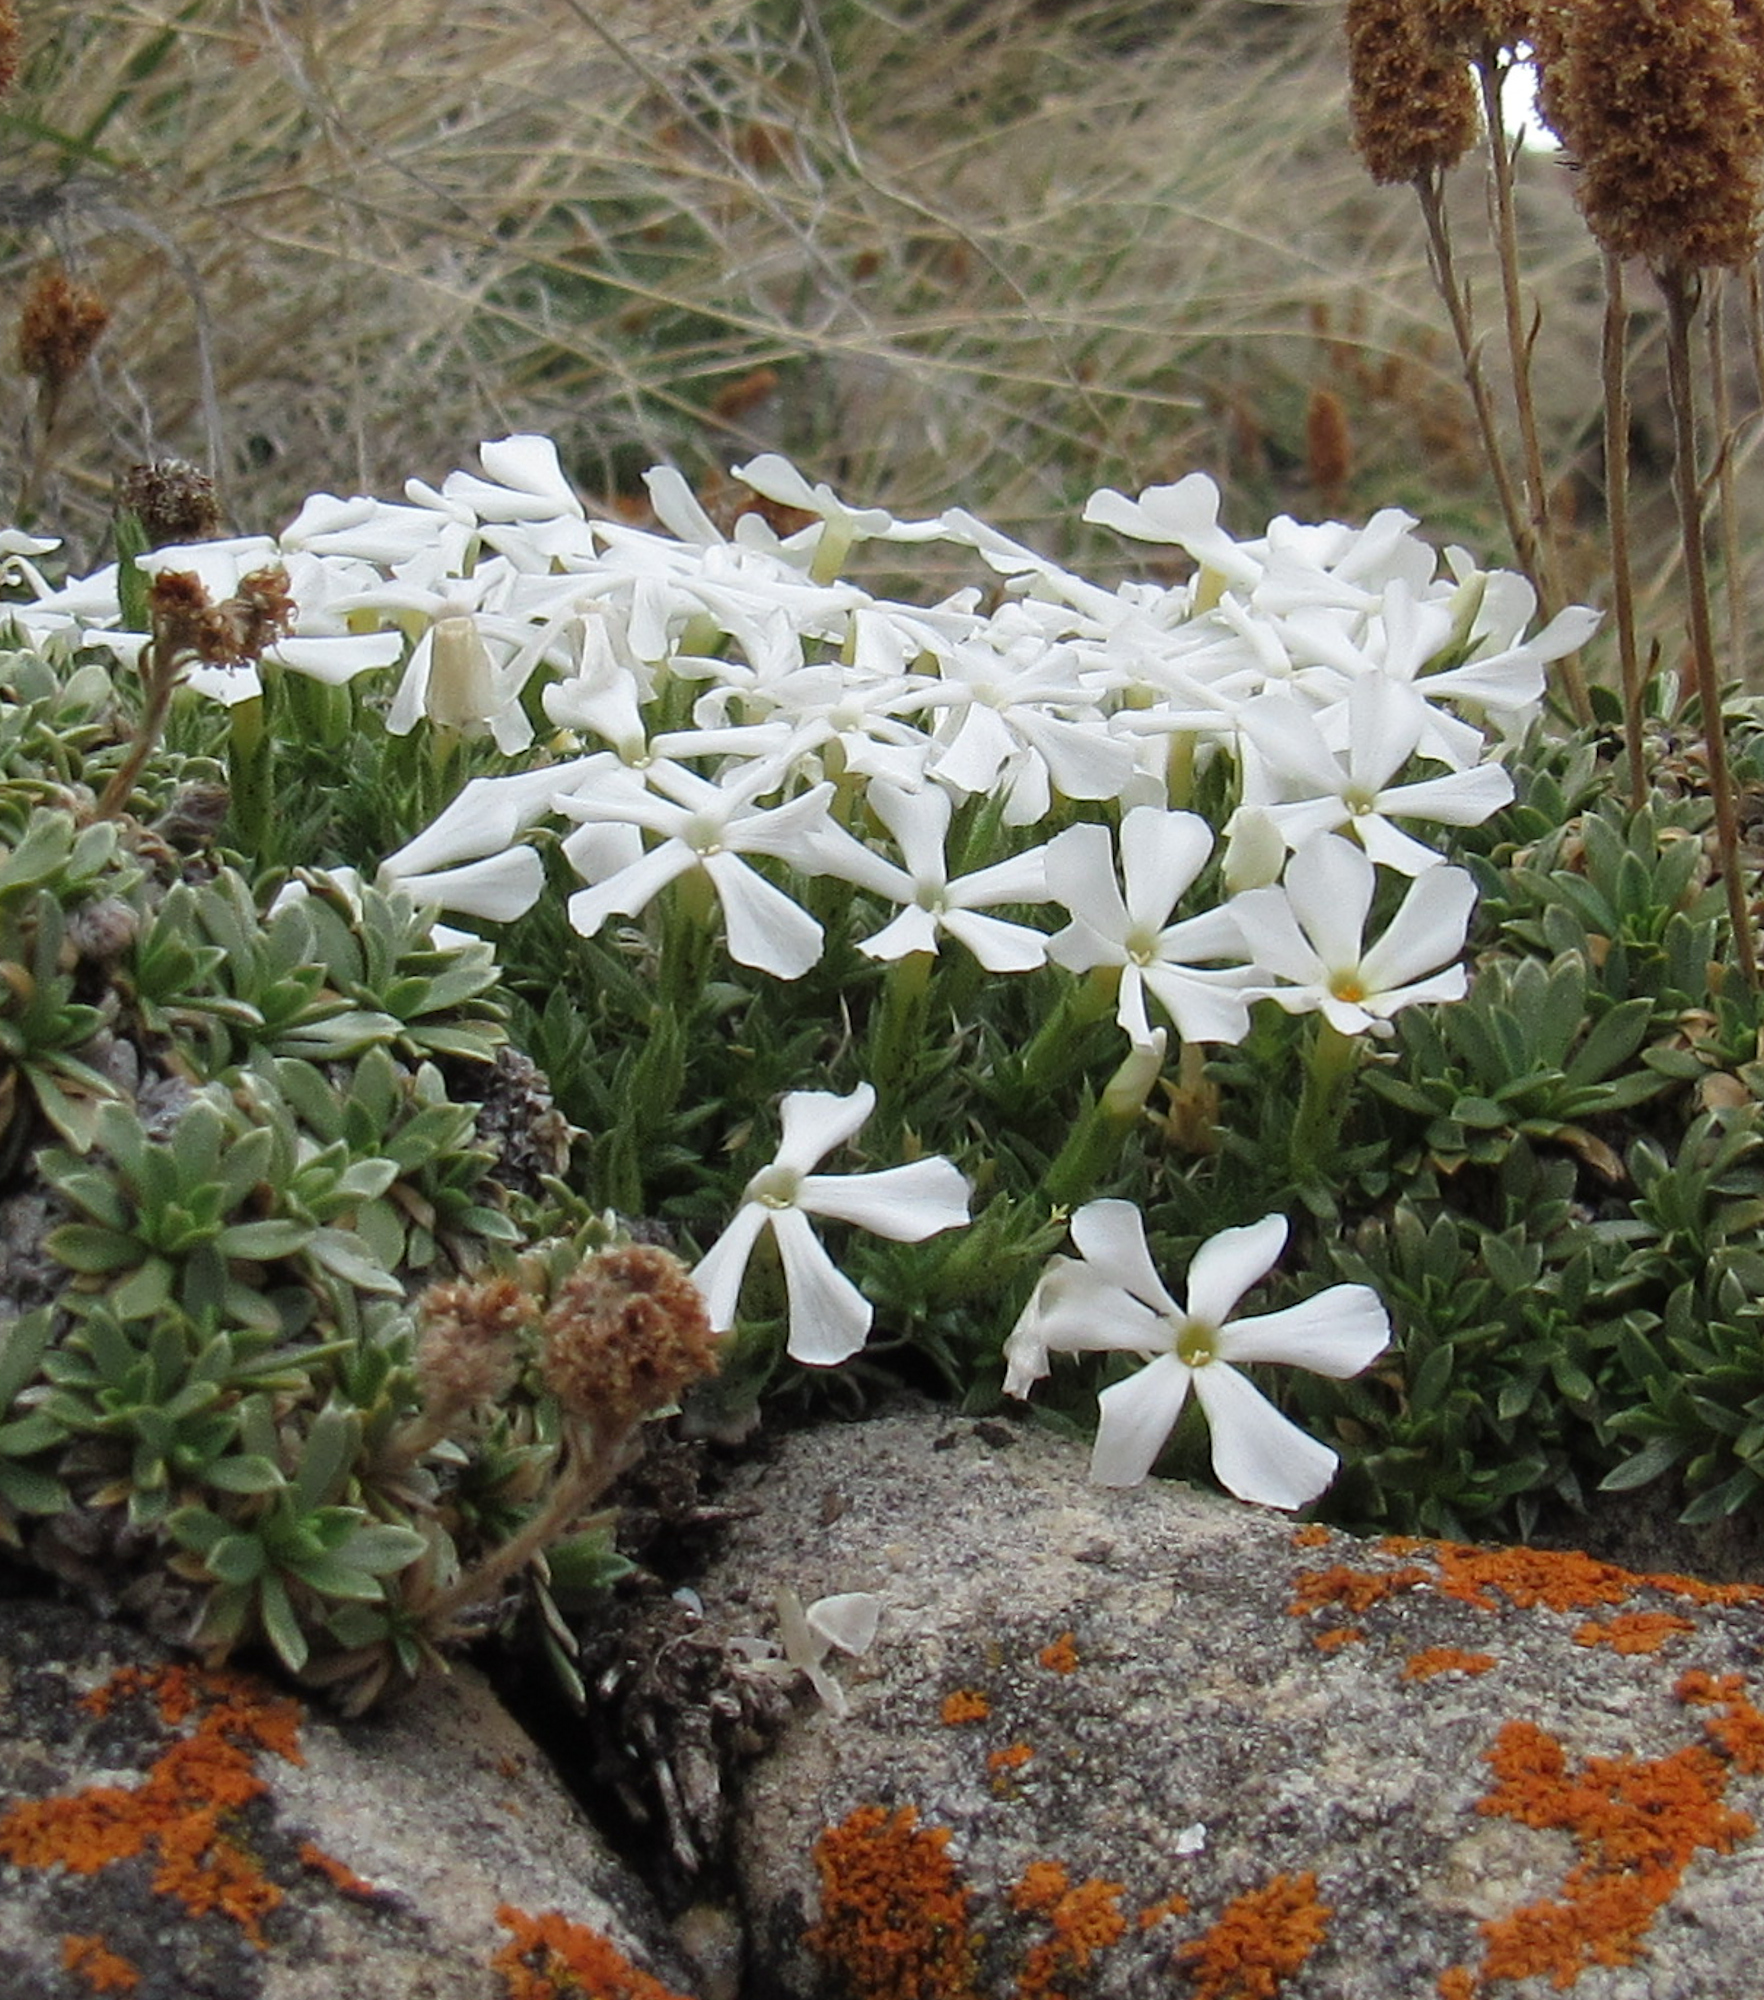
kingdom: Plantae
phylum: Tracheophyta
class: Magnoliopsida
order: Ericales
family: Polemoniaceae
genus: Phlox
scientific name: Phlox kelseyi
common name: Marsh phlox
